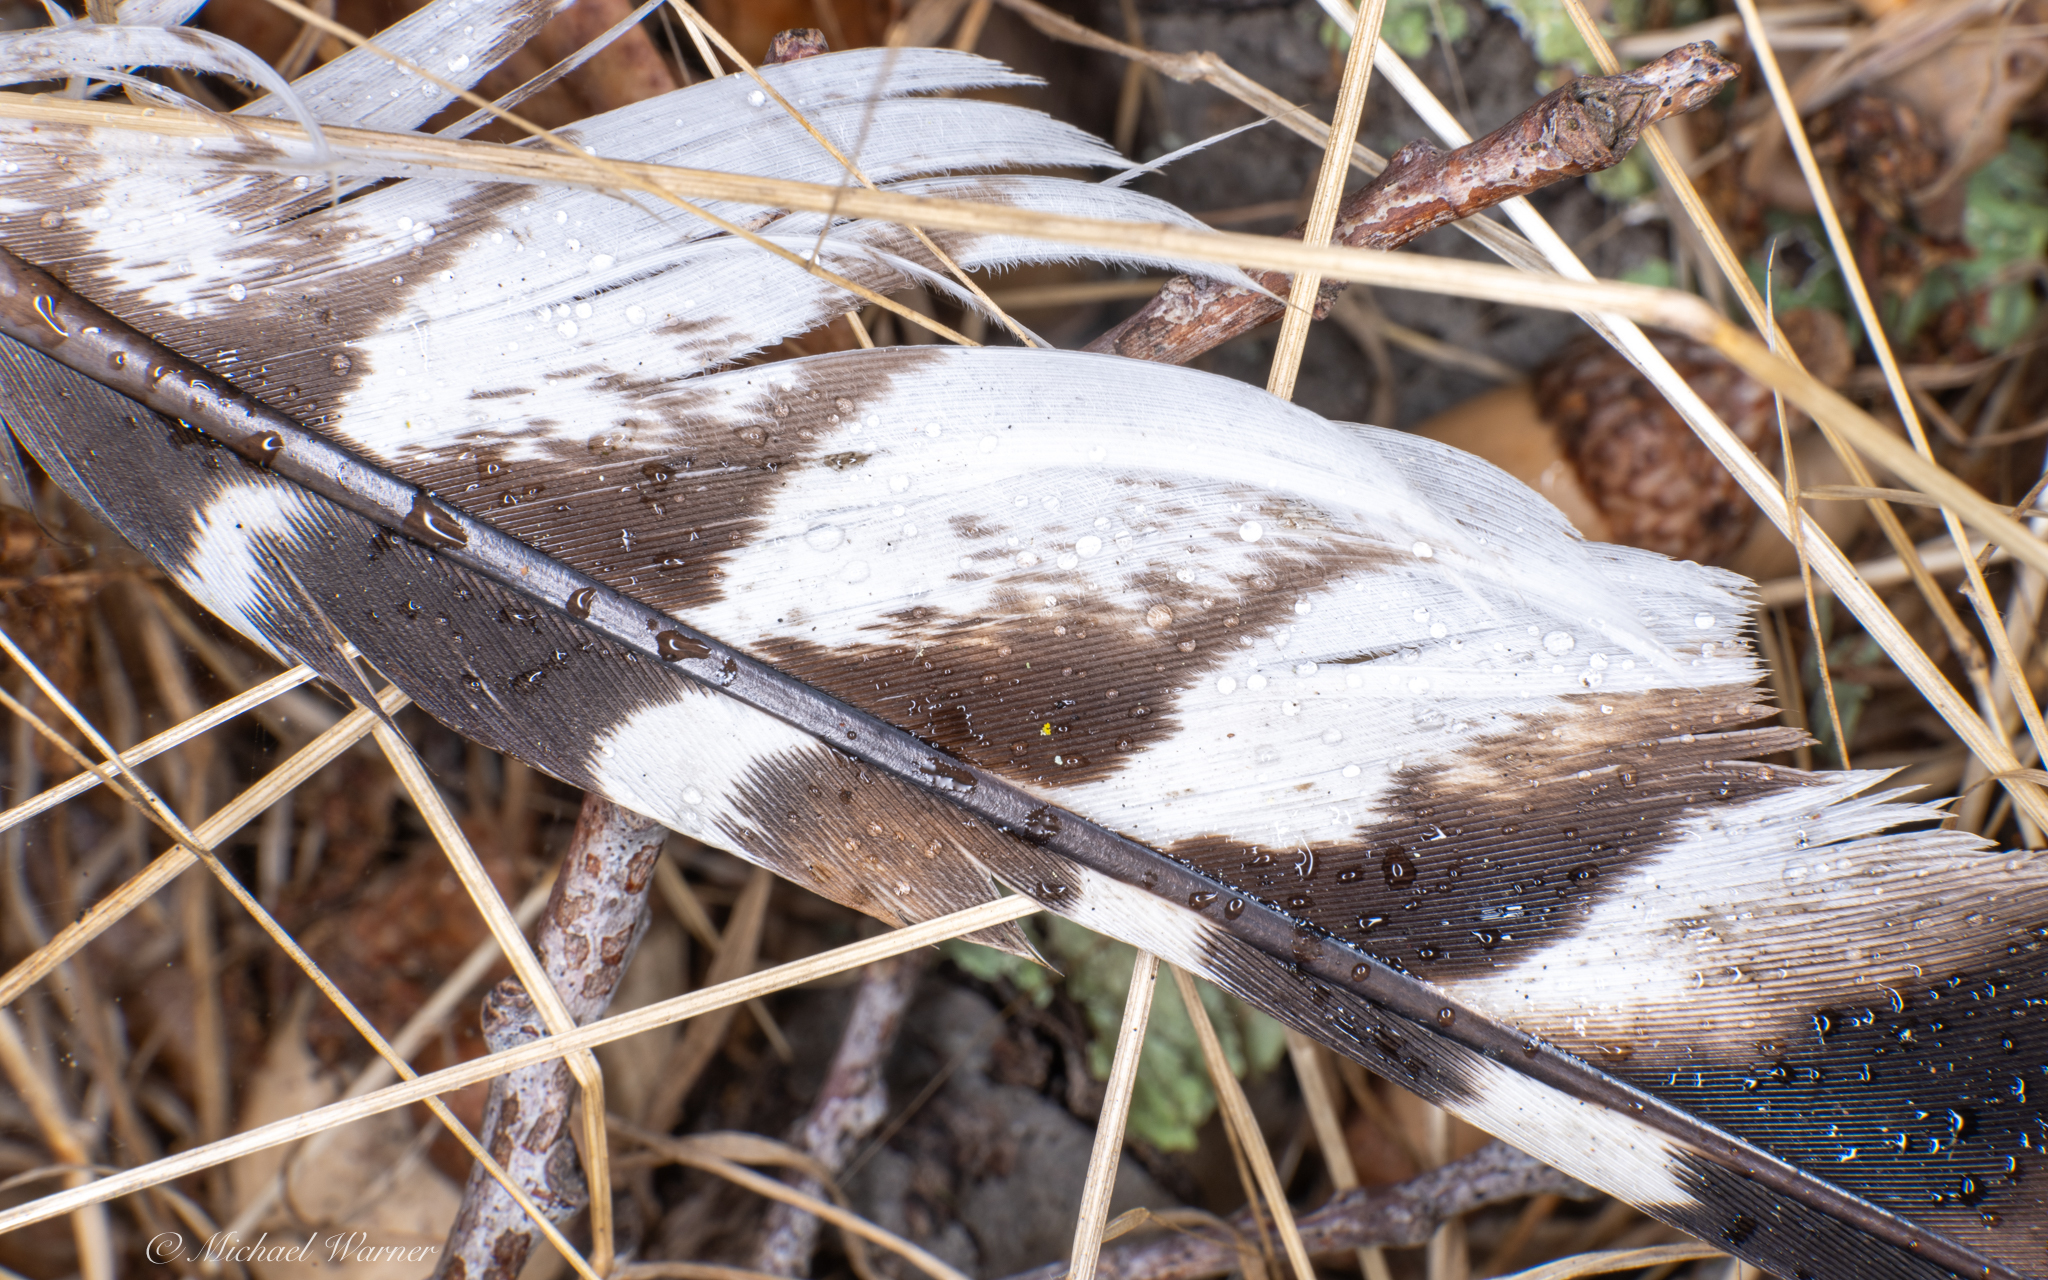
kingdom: Animalia
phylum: Chordata
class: Aves
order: Accipitriformes
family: Accipitridae
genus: Buteo
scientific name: Buteo lineatus
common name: Red-shouldered hawk
